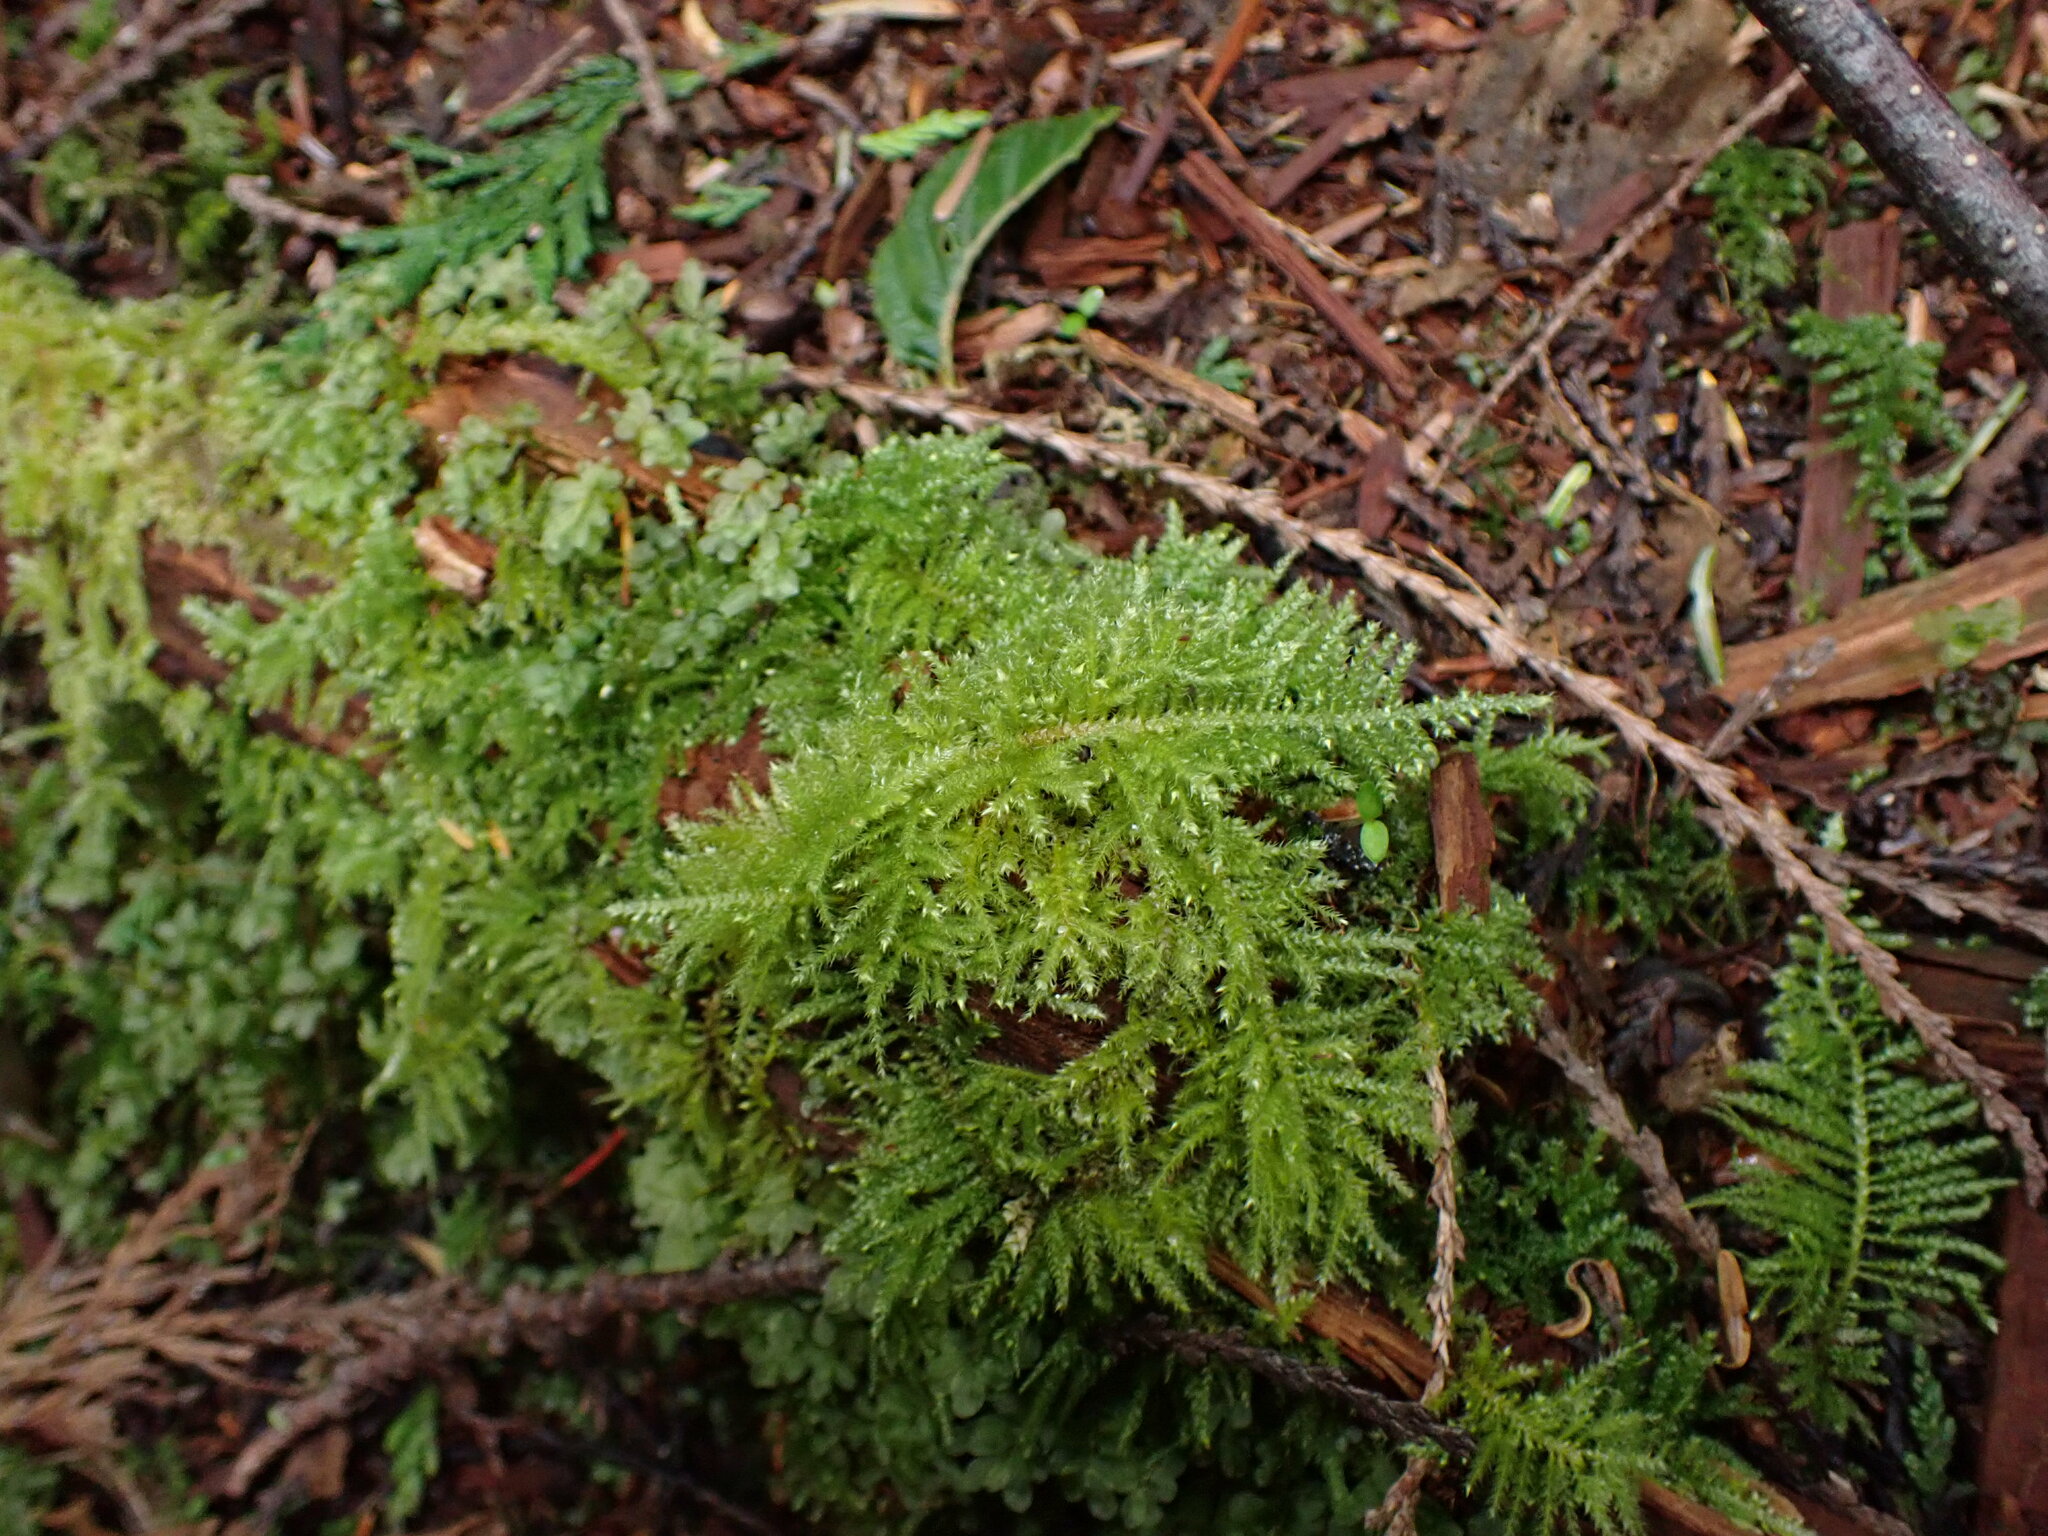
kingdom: Plantae
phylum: Bryophyta
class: Bryopsida
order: Hypnales
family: Brachytheciaceae
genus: Kindbergia
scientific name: Kindbergia oregana
